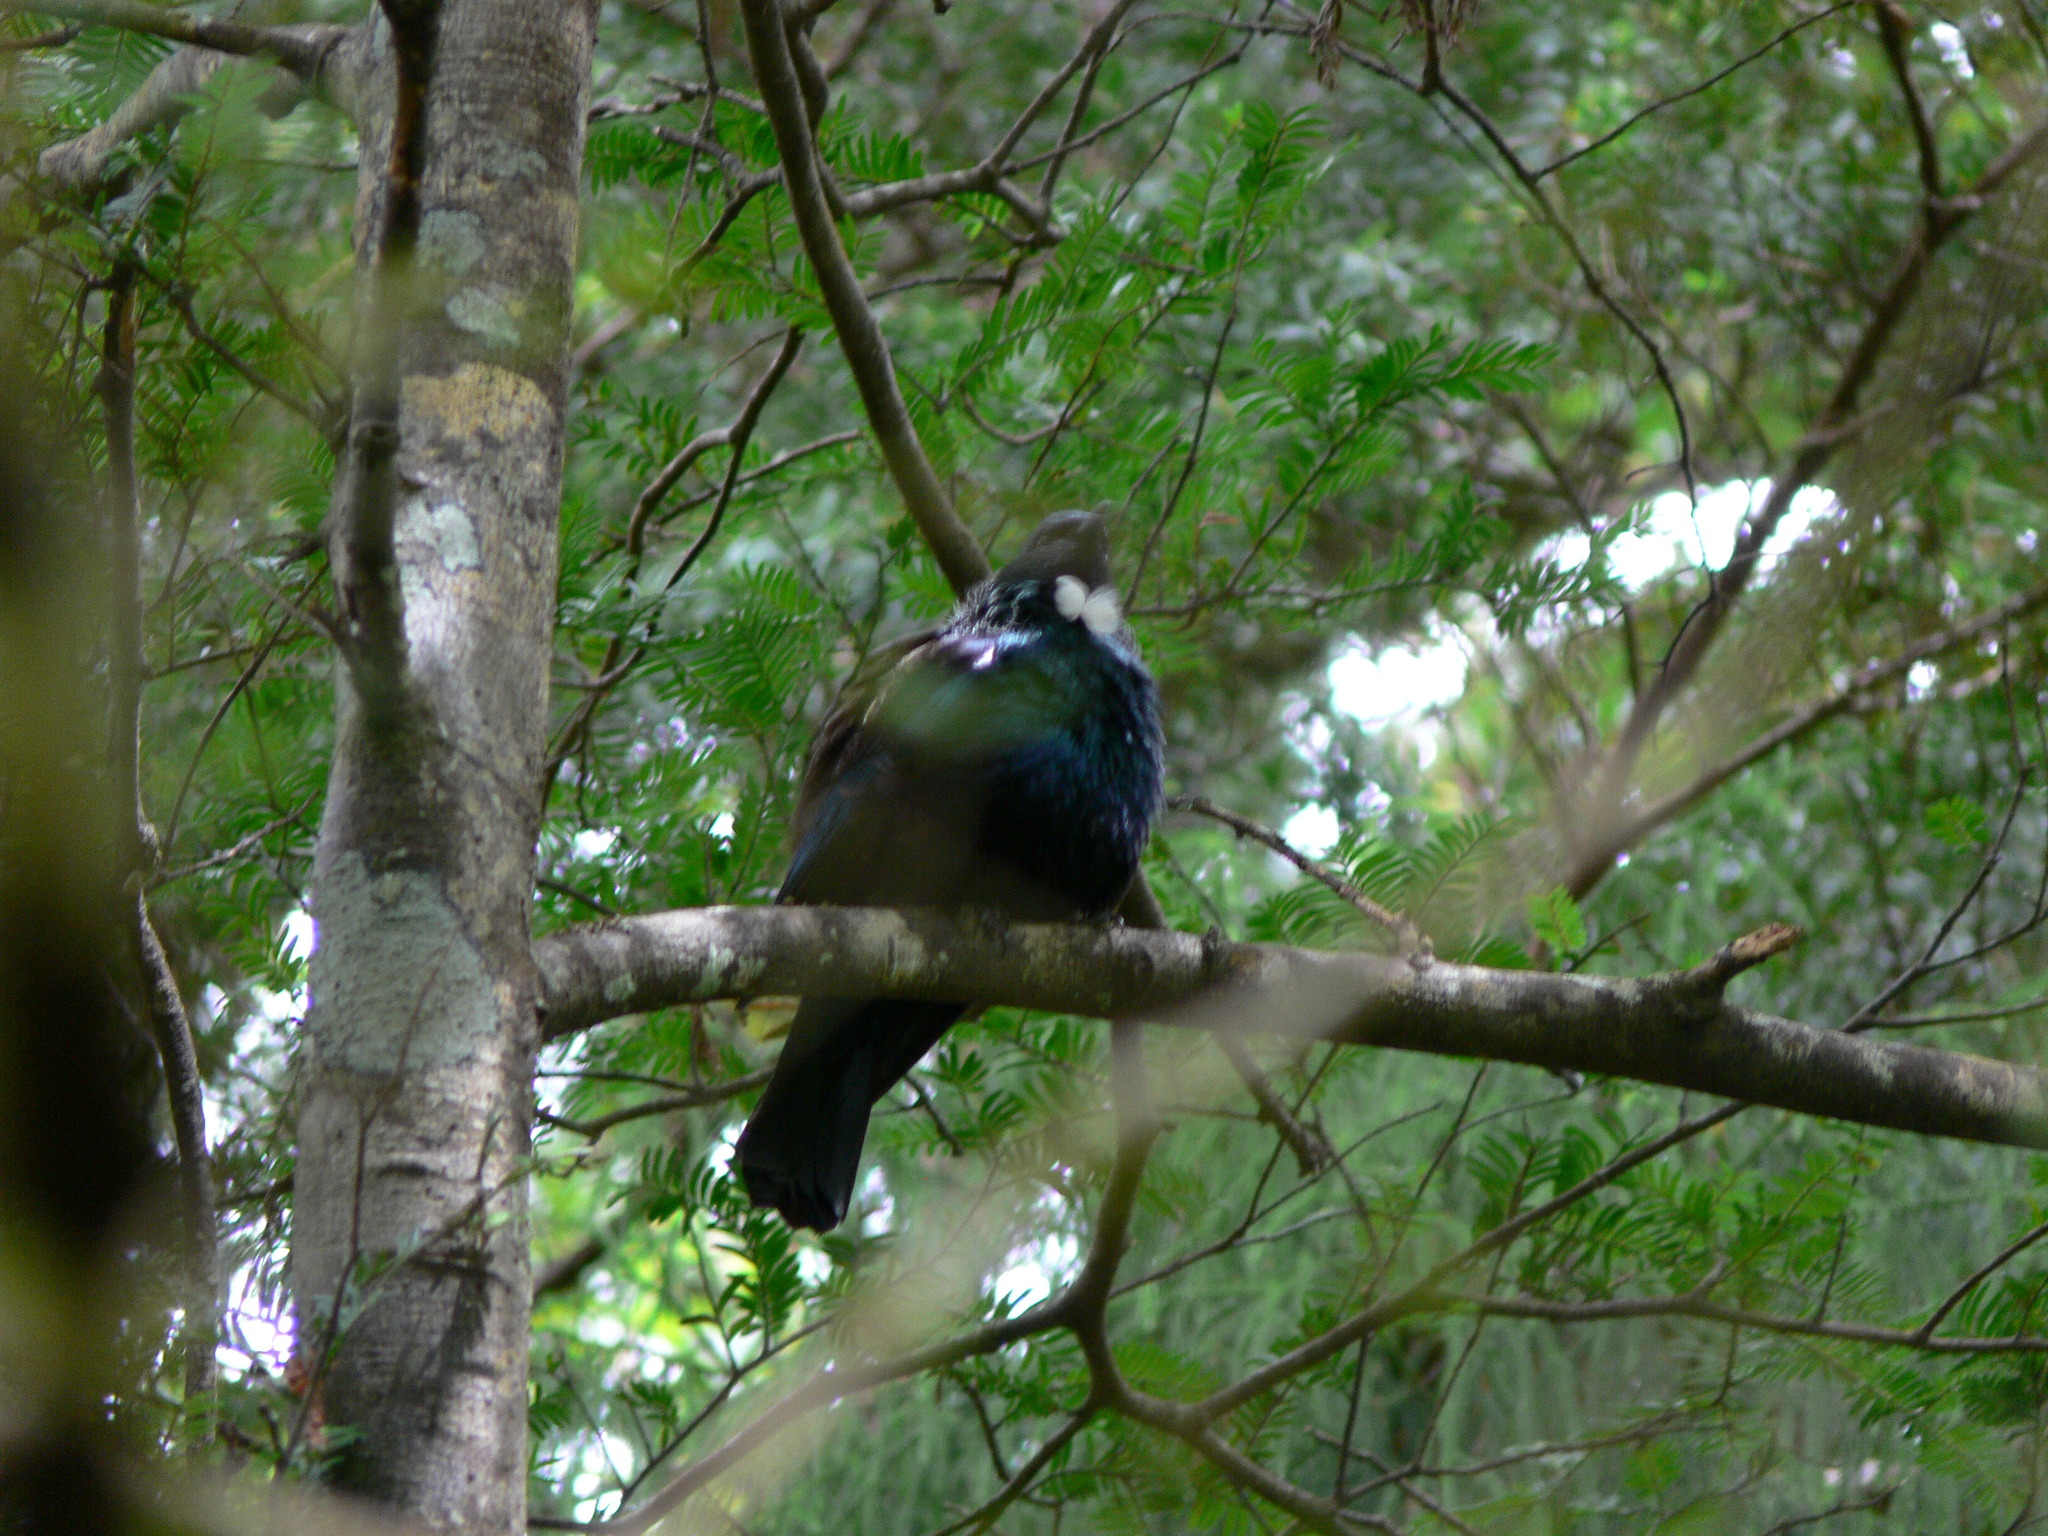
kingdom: Animalia
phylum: Chordata
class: Aves
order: Passeriformes
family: Meliphagidae
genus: Prosthemadera
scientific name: Prosthemadera novaeseelandiae
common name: Tui
